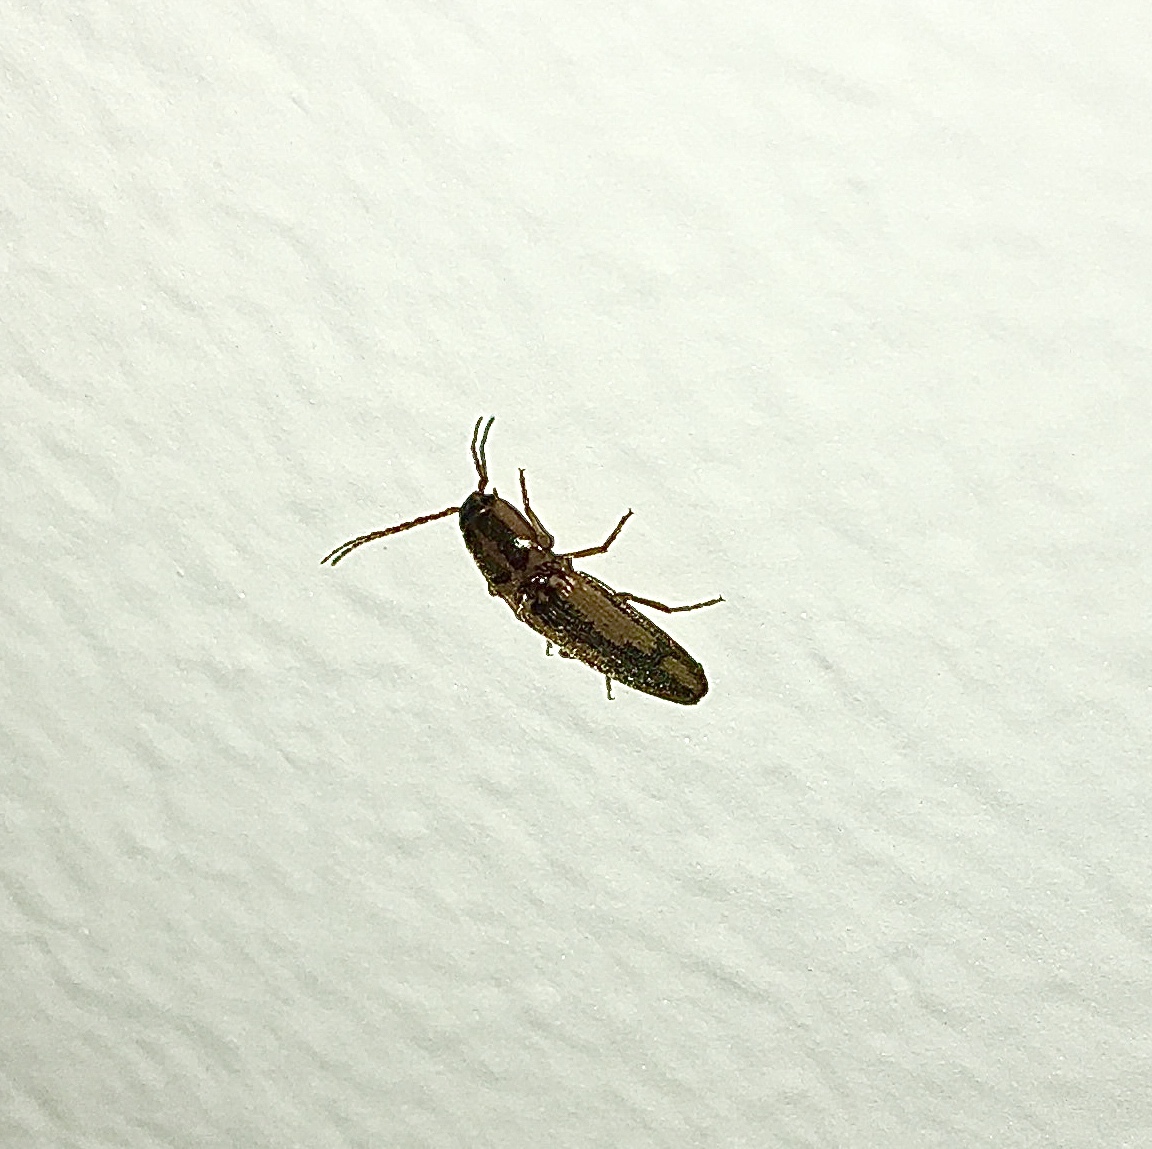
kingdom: Animalia
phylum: Arthropoda
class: Insecta
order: Coleoptera
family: Elateridae
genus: Monocrepidius
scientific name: Monocrepidius
